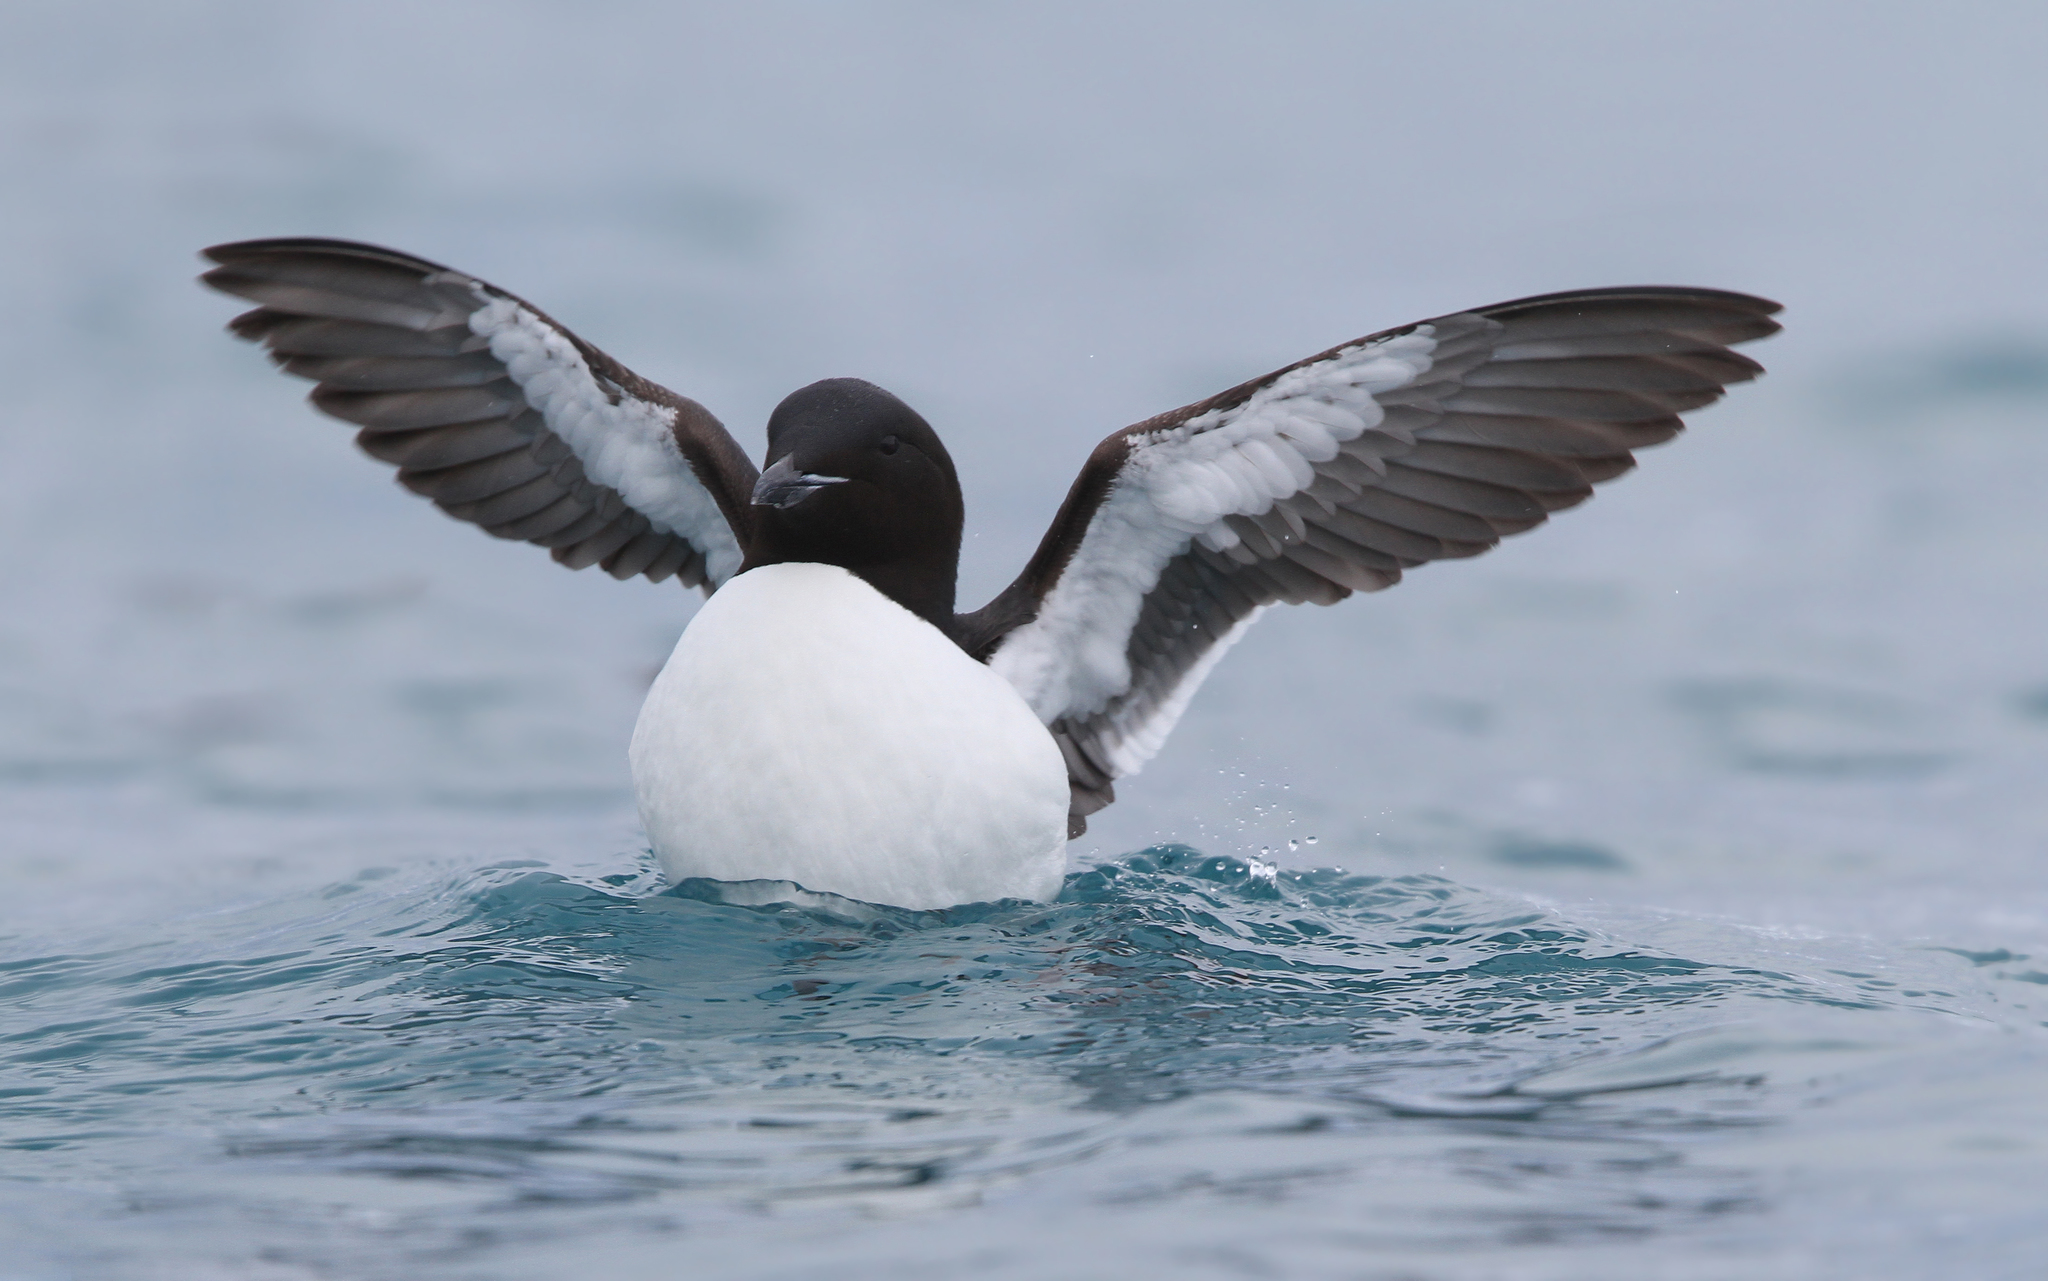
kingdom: Animalia
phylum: Chordata
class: Aves
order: Charadriiformes
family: Alcidae
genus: Uria
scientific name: Uria lomvia
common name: Thick-billed murre
